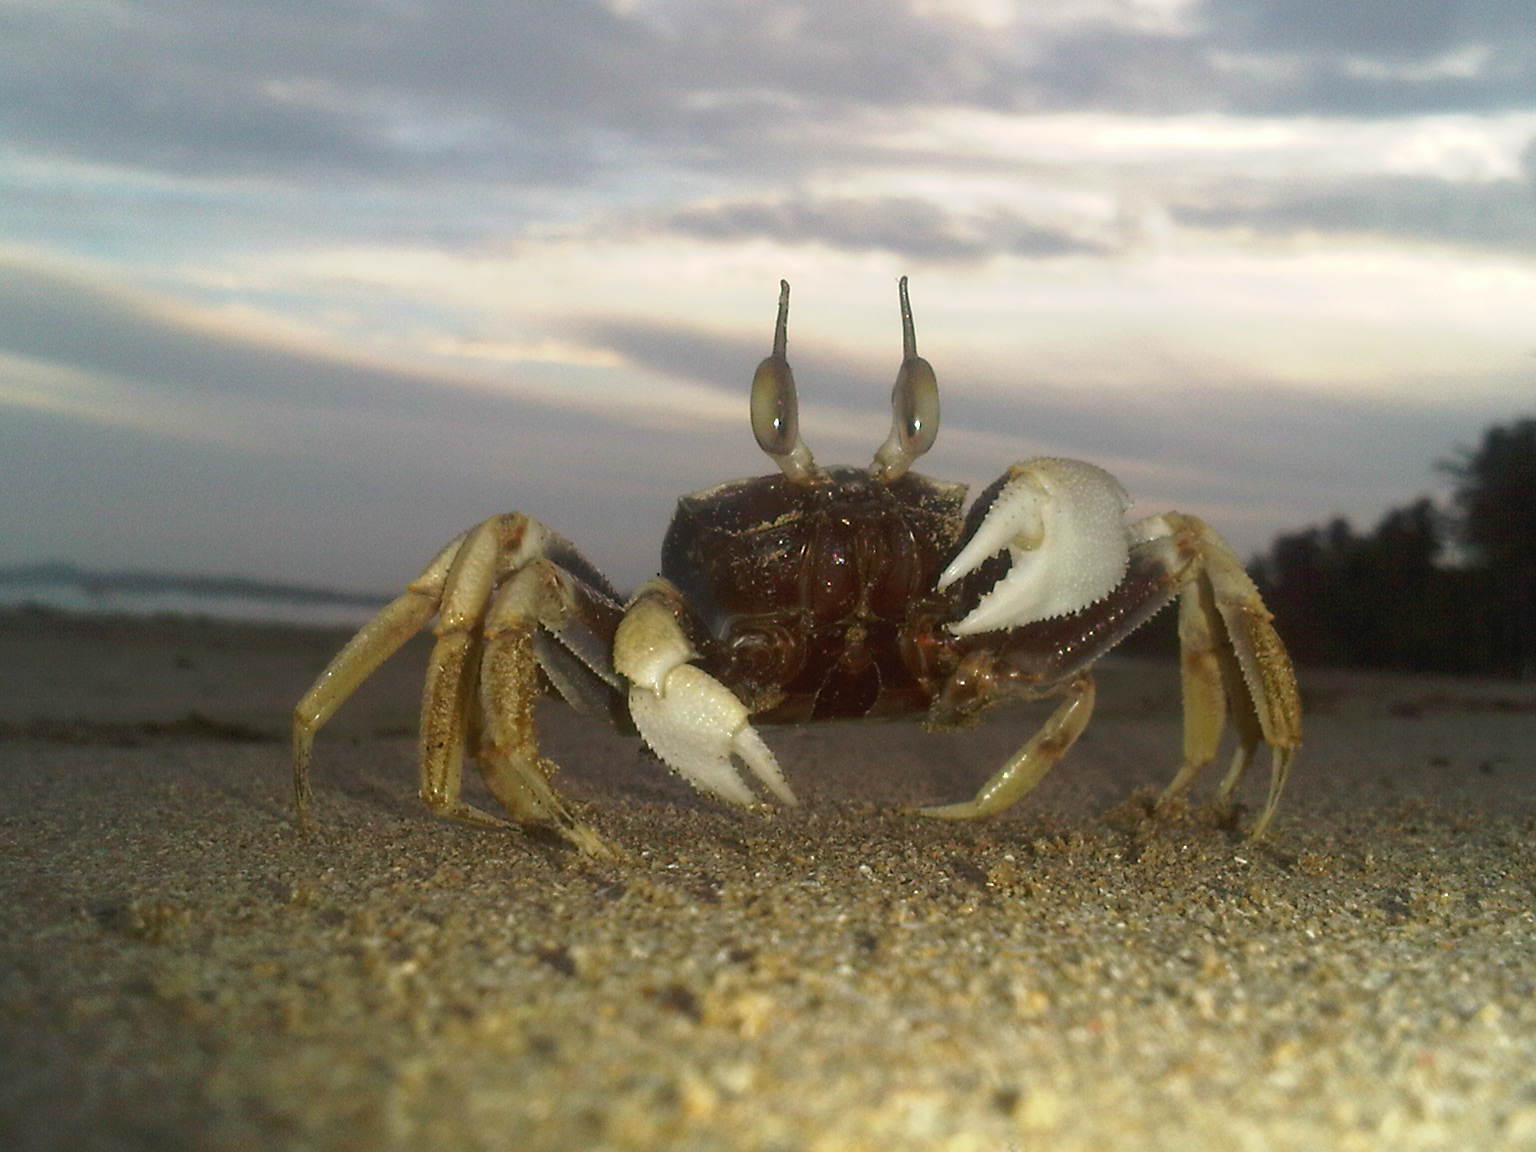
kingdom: Animalia
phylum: Arthropoda
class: Malacostraca
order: Decapoda
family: Ocypodidae
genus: Ocypode
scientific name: Ocypode ceratophthalmus
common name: Indo-pacific ghost crab
